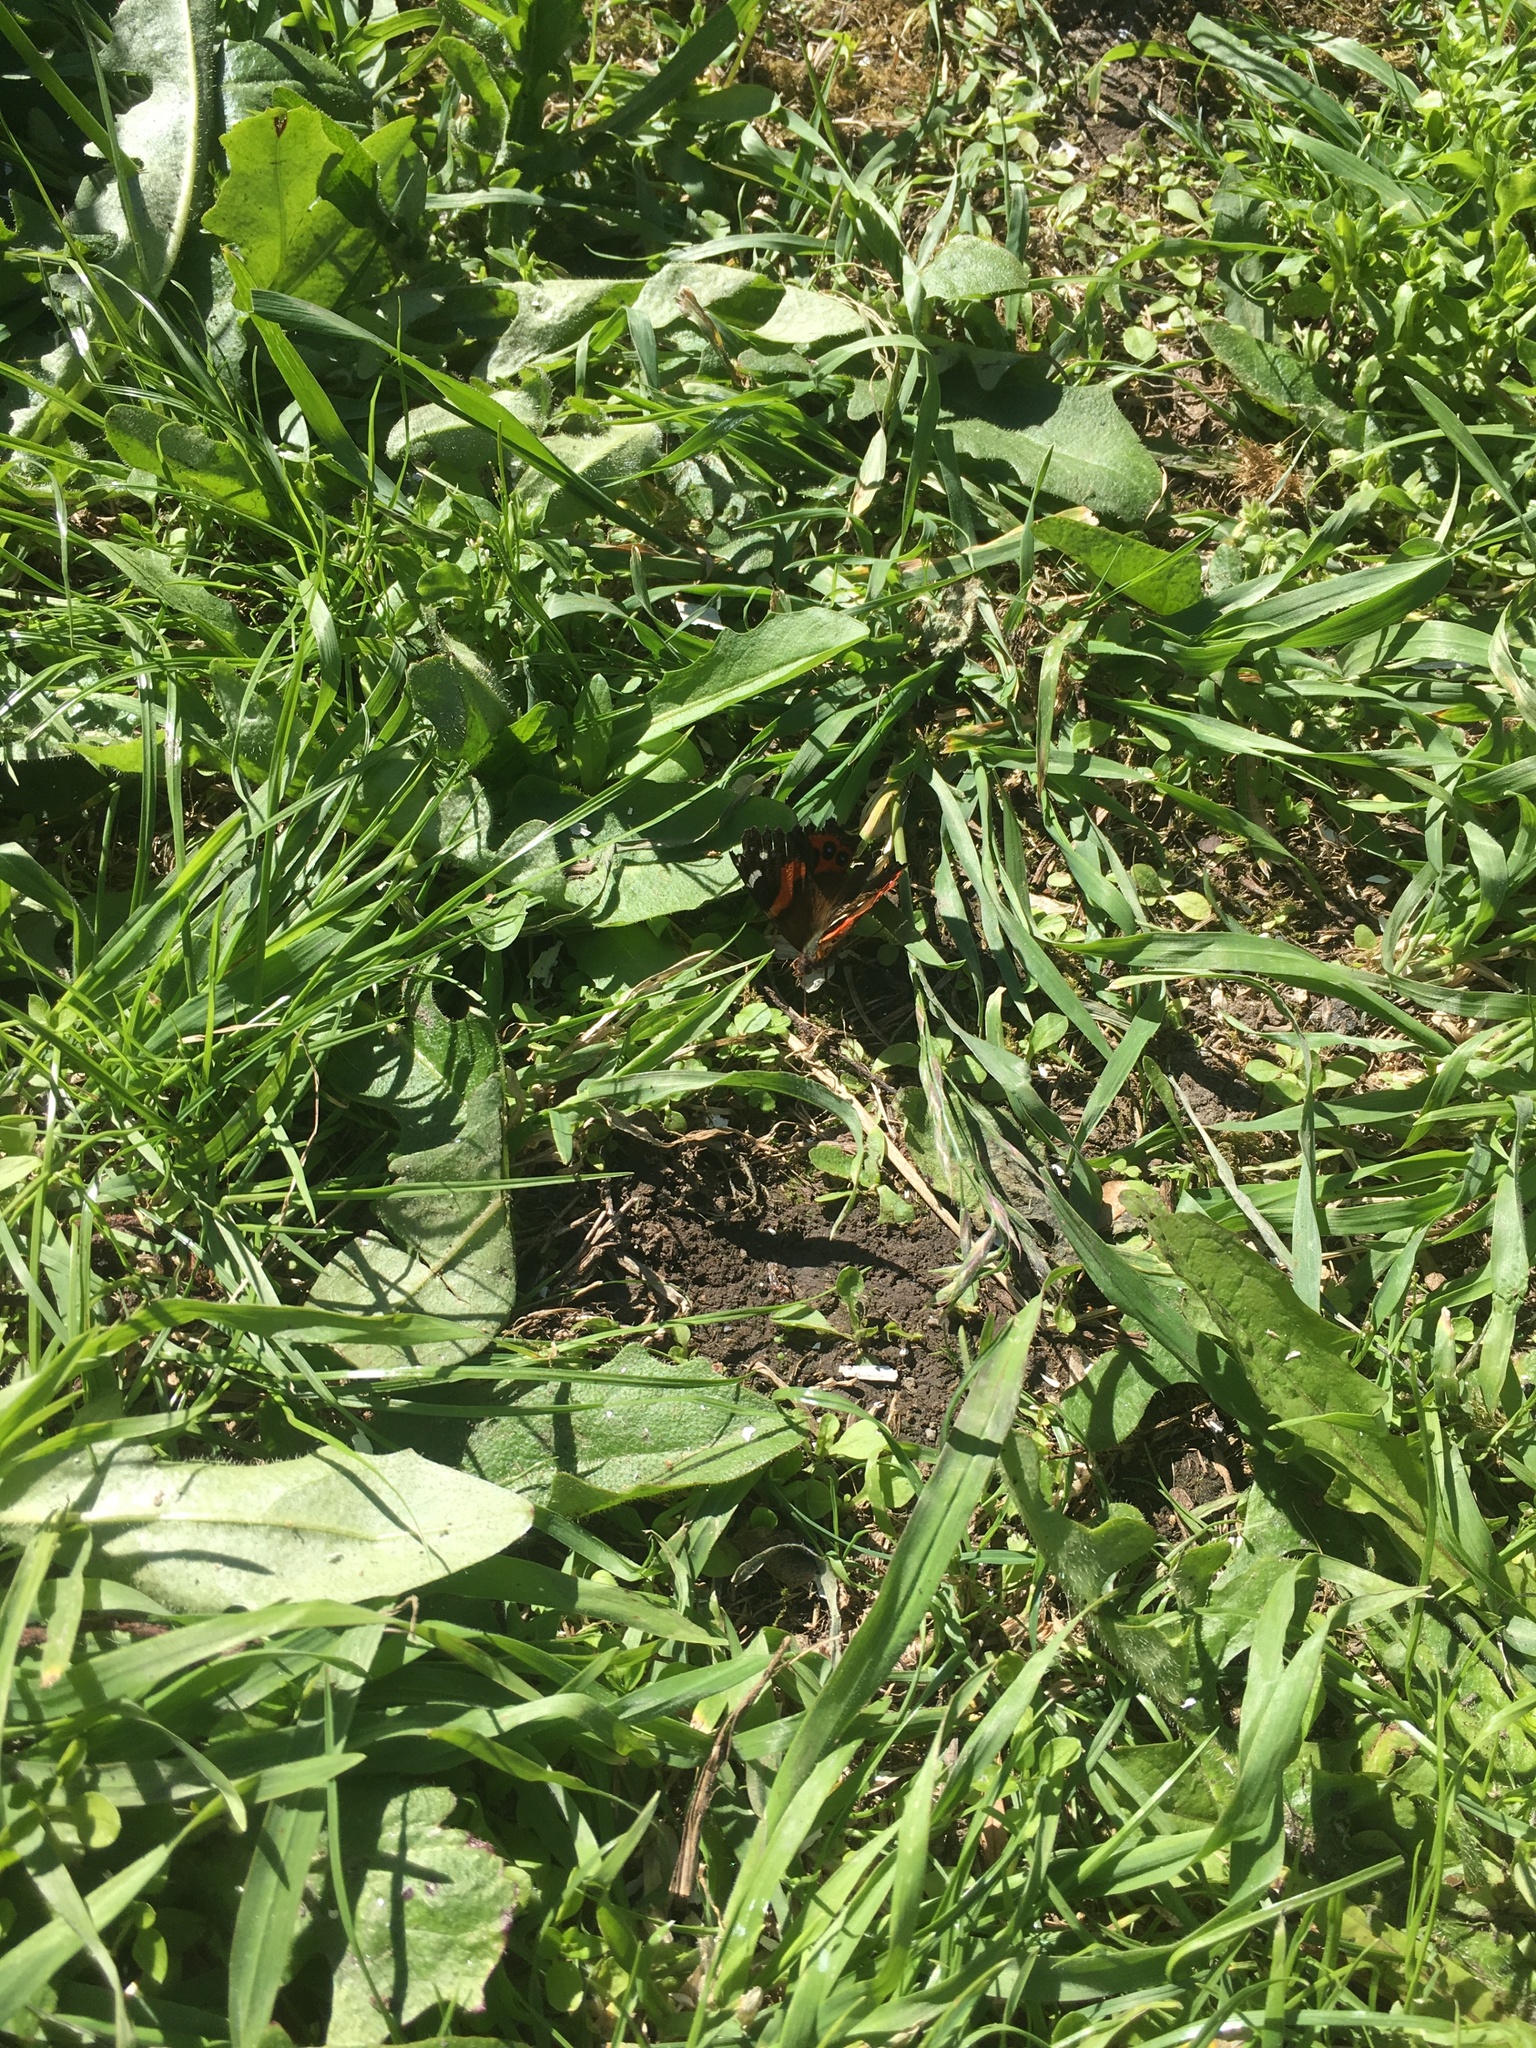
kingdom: Animalia
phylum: Arthropoda
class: Insecta
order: Lepidoptera
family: Nymphalidae
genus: Vanessa
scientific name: Vanessa gonerilla
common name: New zealand red admiral
